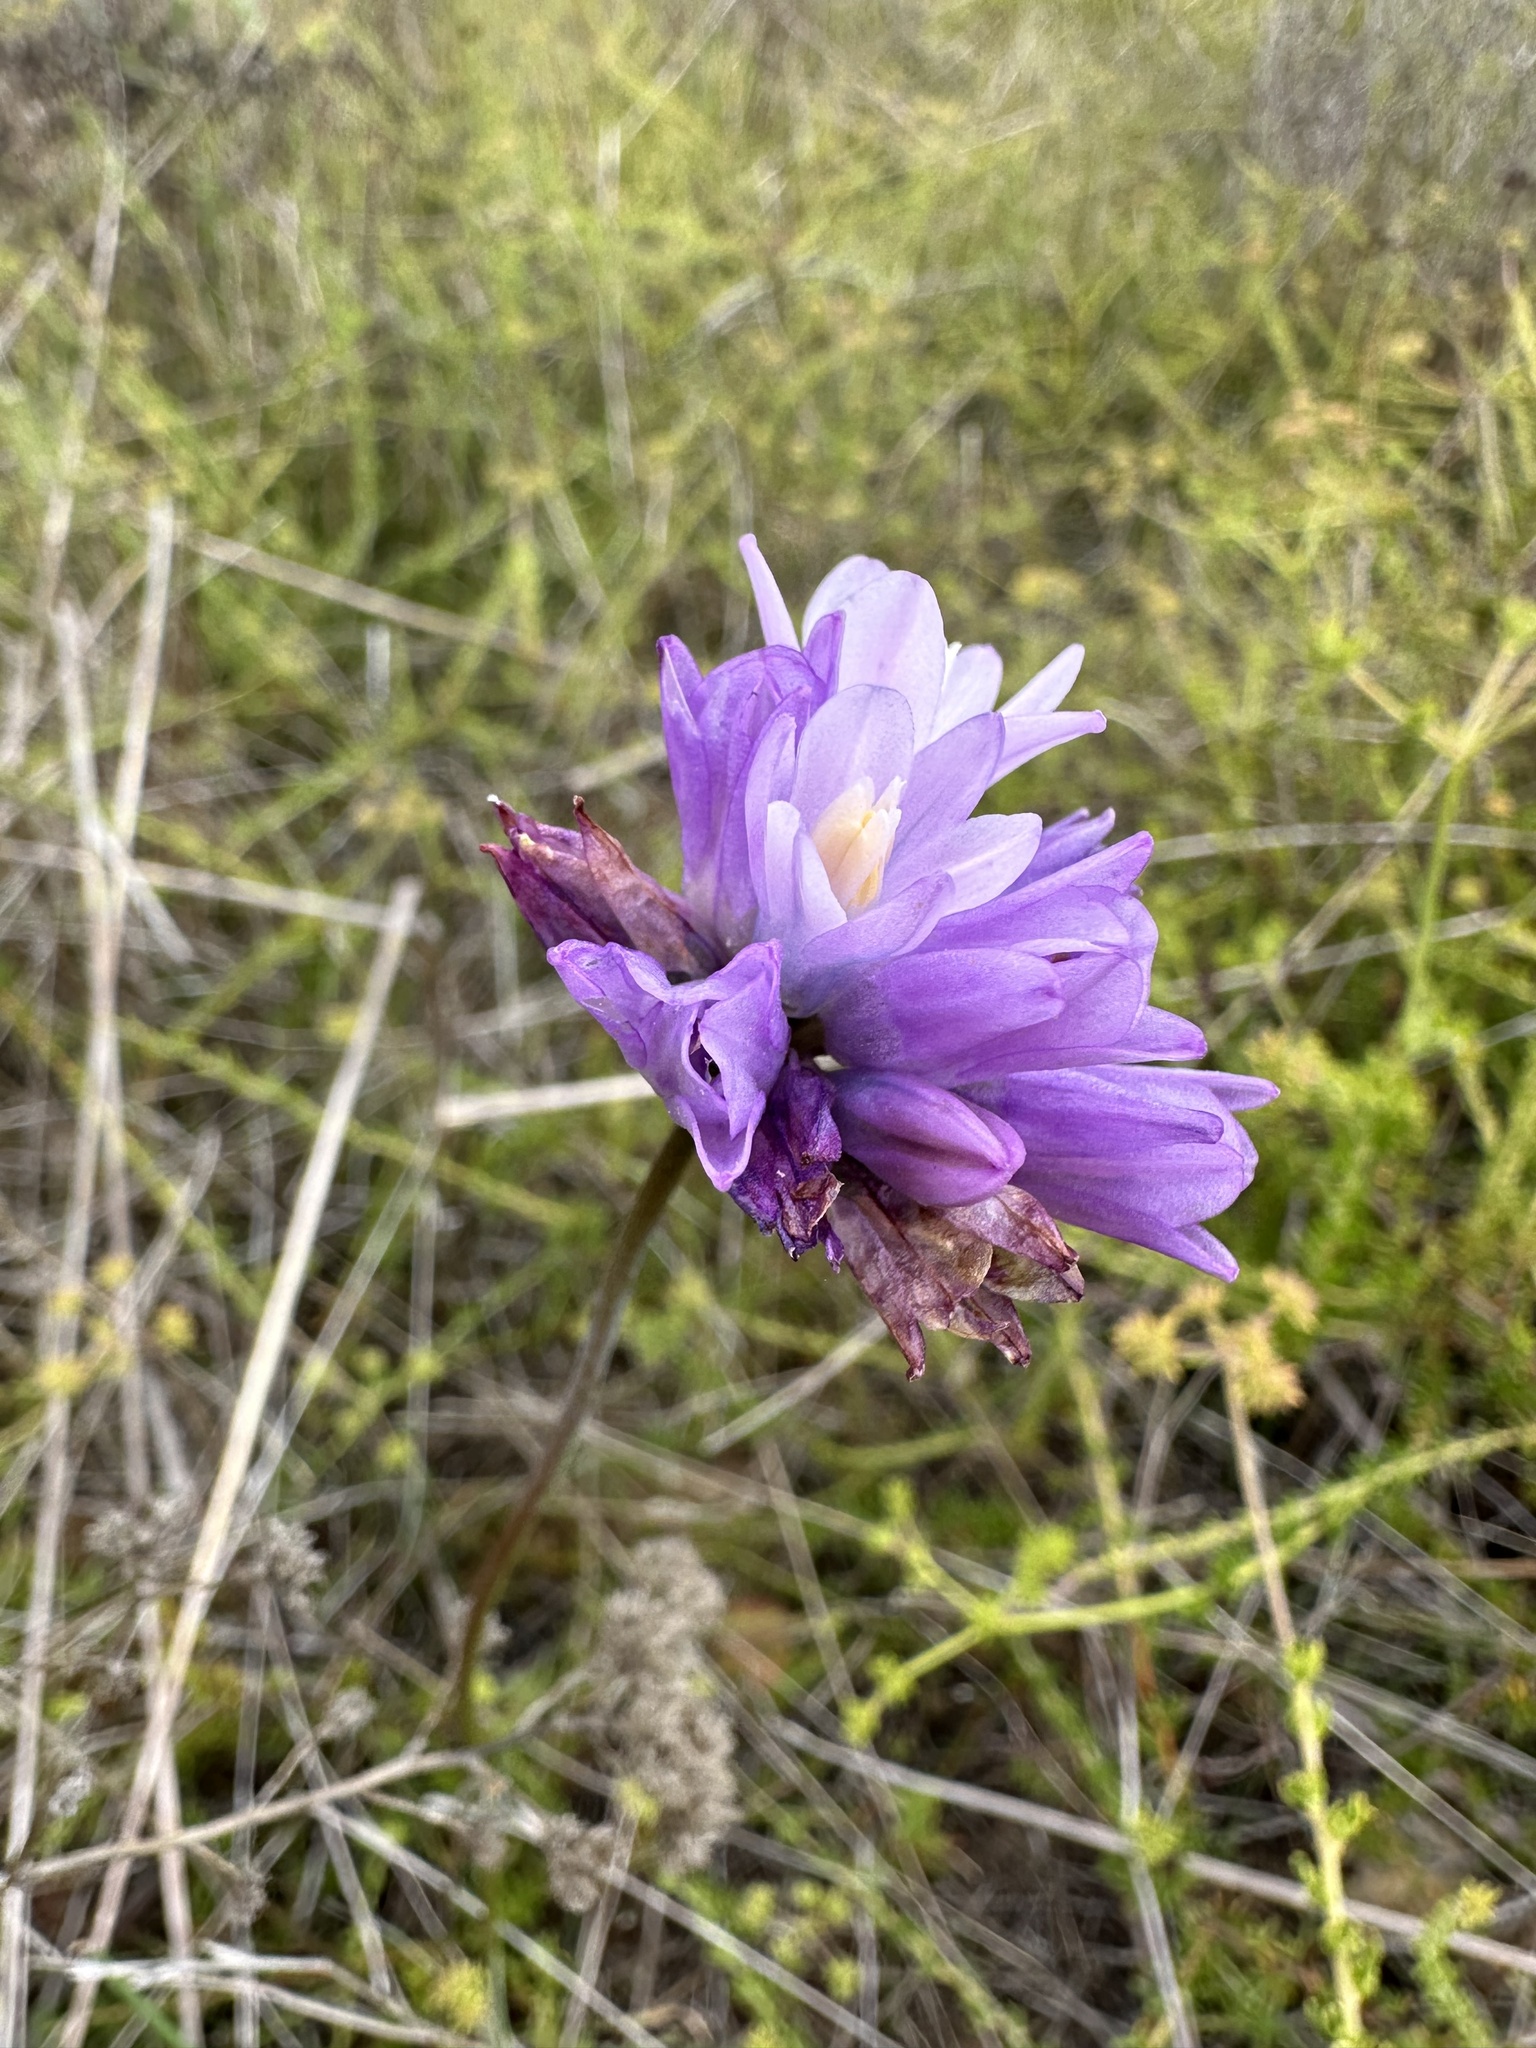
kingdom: Plantae
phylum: Tracheophyta
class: Liliopsida
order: Asparagales
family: Asparagaceae
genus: Dipterostemon
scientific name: Dipterostemon capitatus
